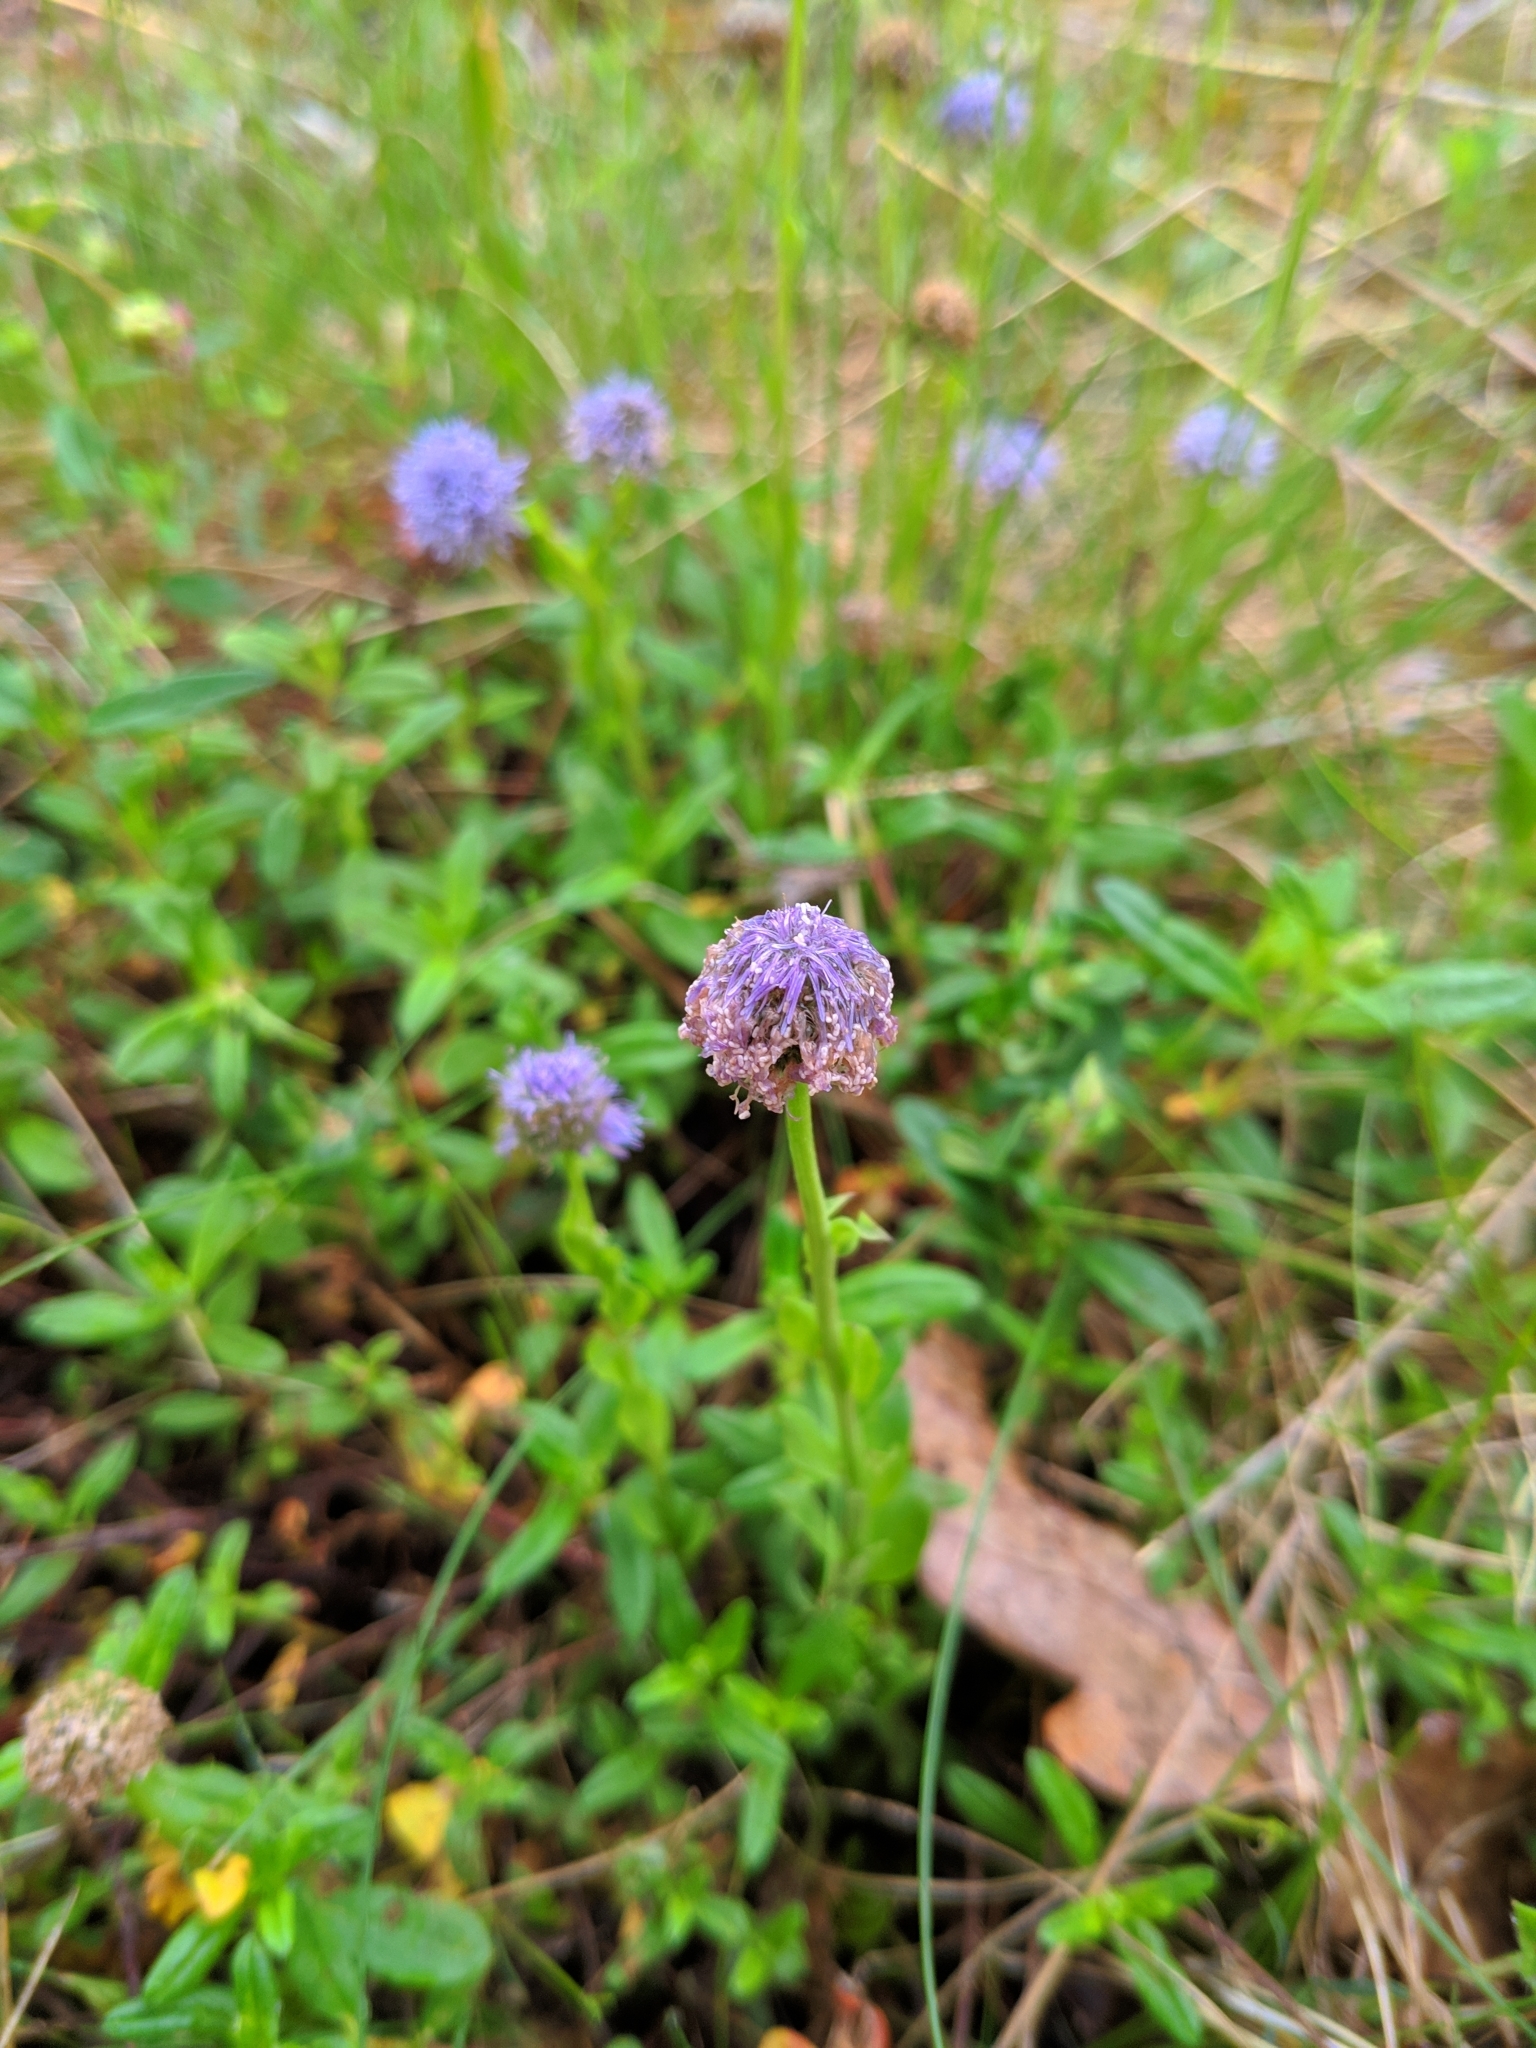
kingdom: Plantae
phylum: Tracheophyta
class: Magnoliopsida
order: Lamiales
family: Plantaginaceae
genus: Globularia
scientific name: Globularia bisnagarica
